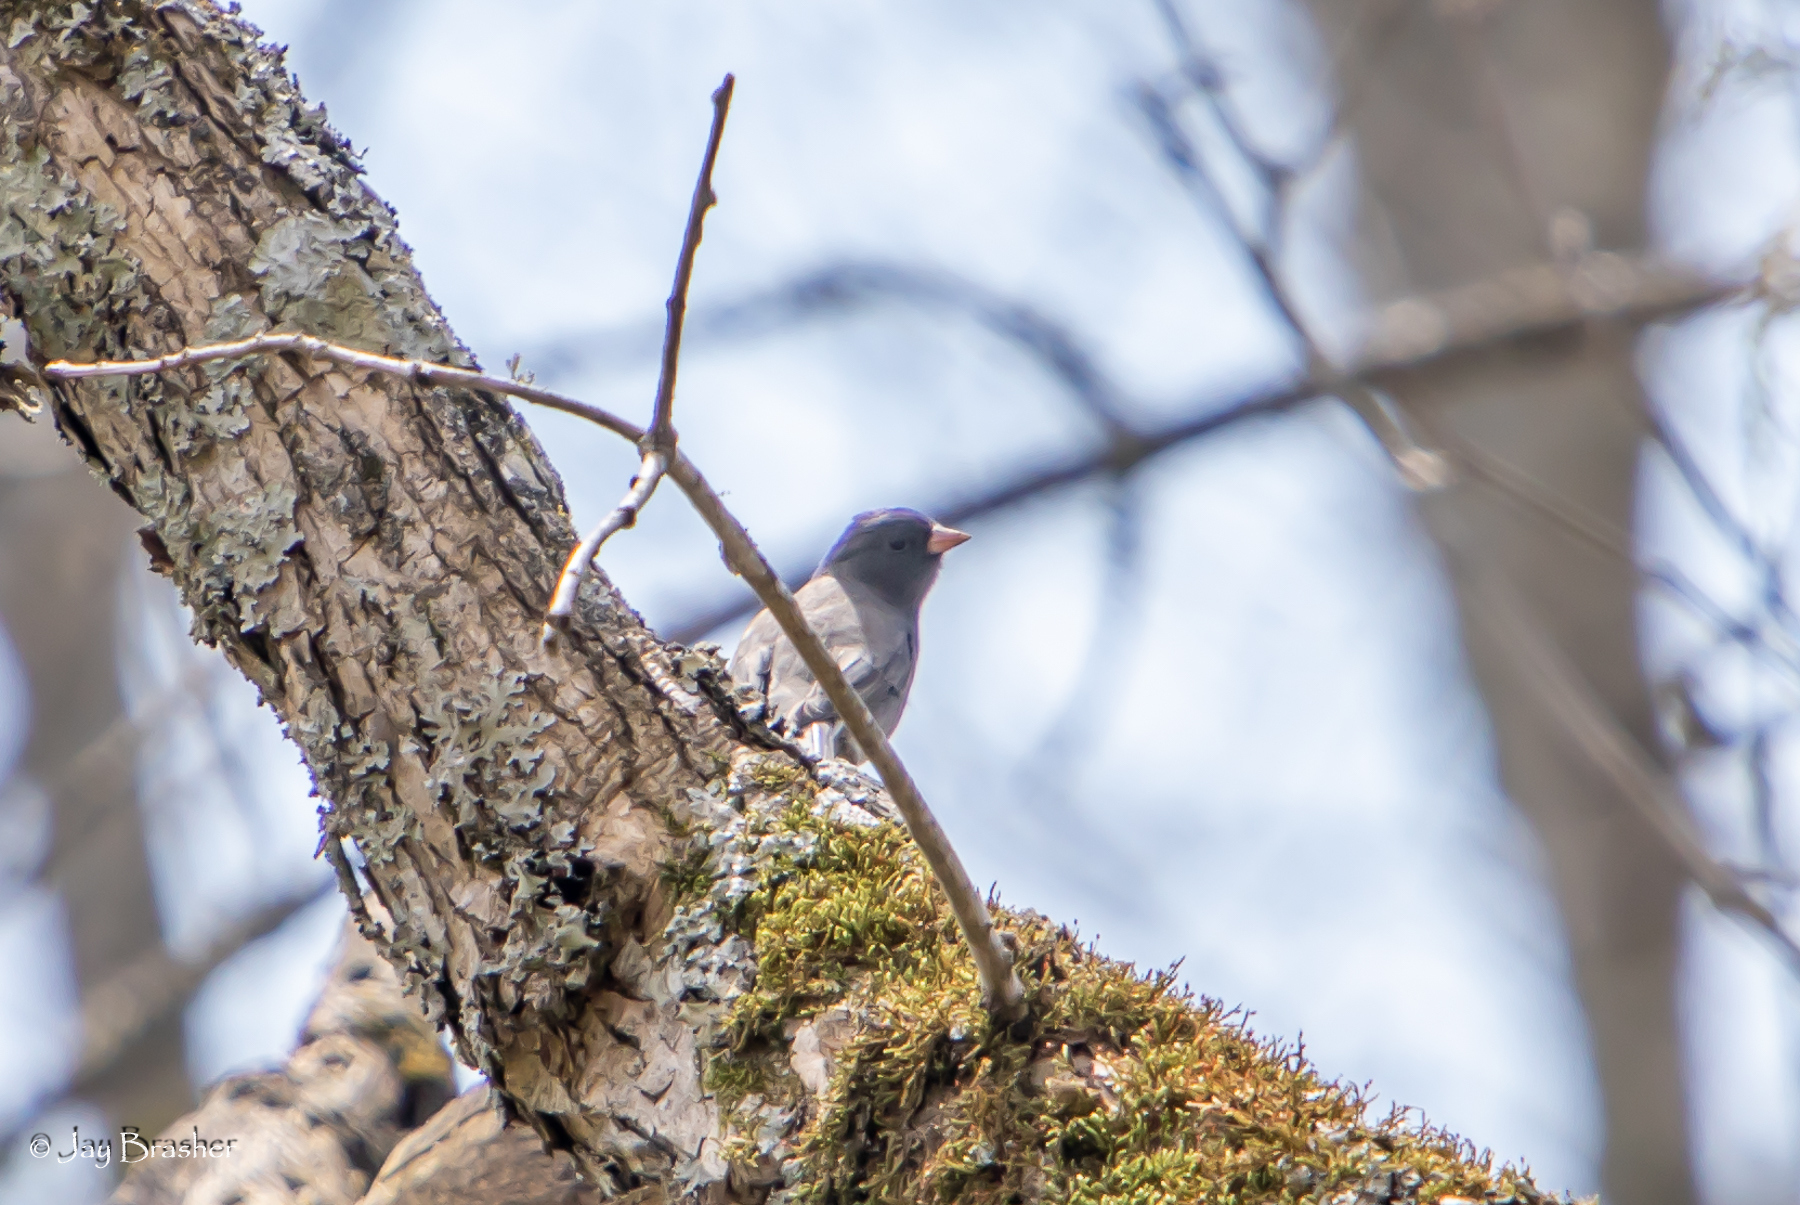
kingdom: Animalia
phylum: Chordata
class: Aves
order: Passeriformes
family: Passerellidae
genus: Junco
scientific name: Junco hyemalis
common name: Dark-eyed junco
